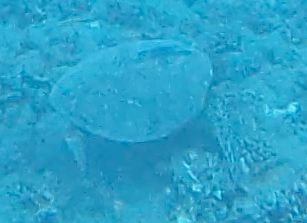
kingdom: Animalia
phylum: Chordata
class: Testudines
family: Cheloniidae
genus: Chelonia
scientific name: Chelonia mydas
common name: Green turtle
